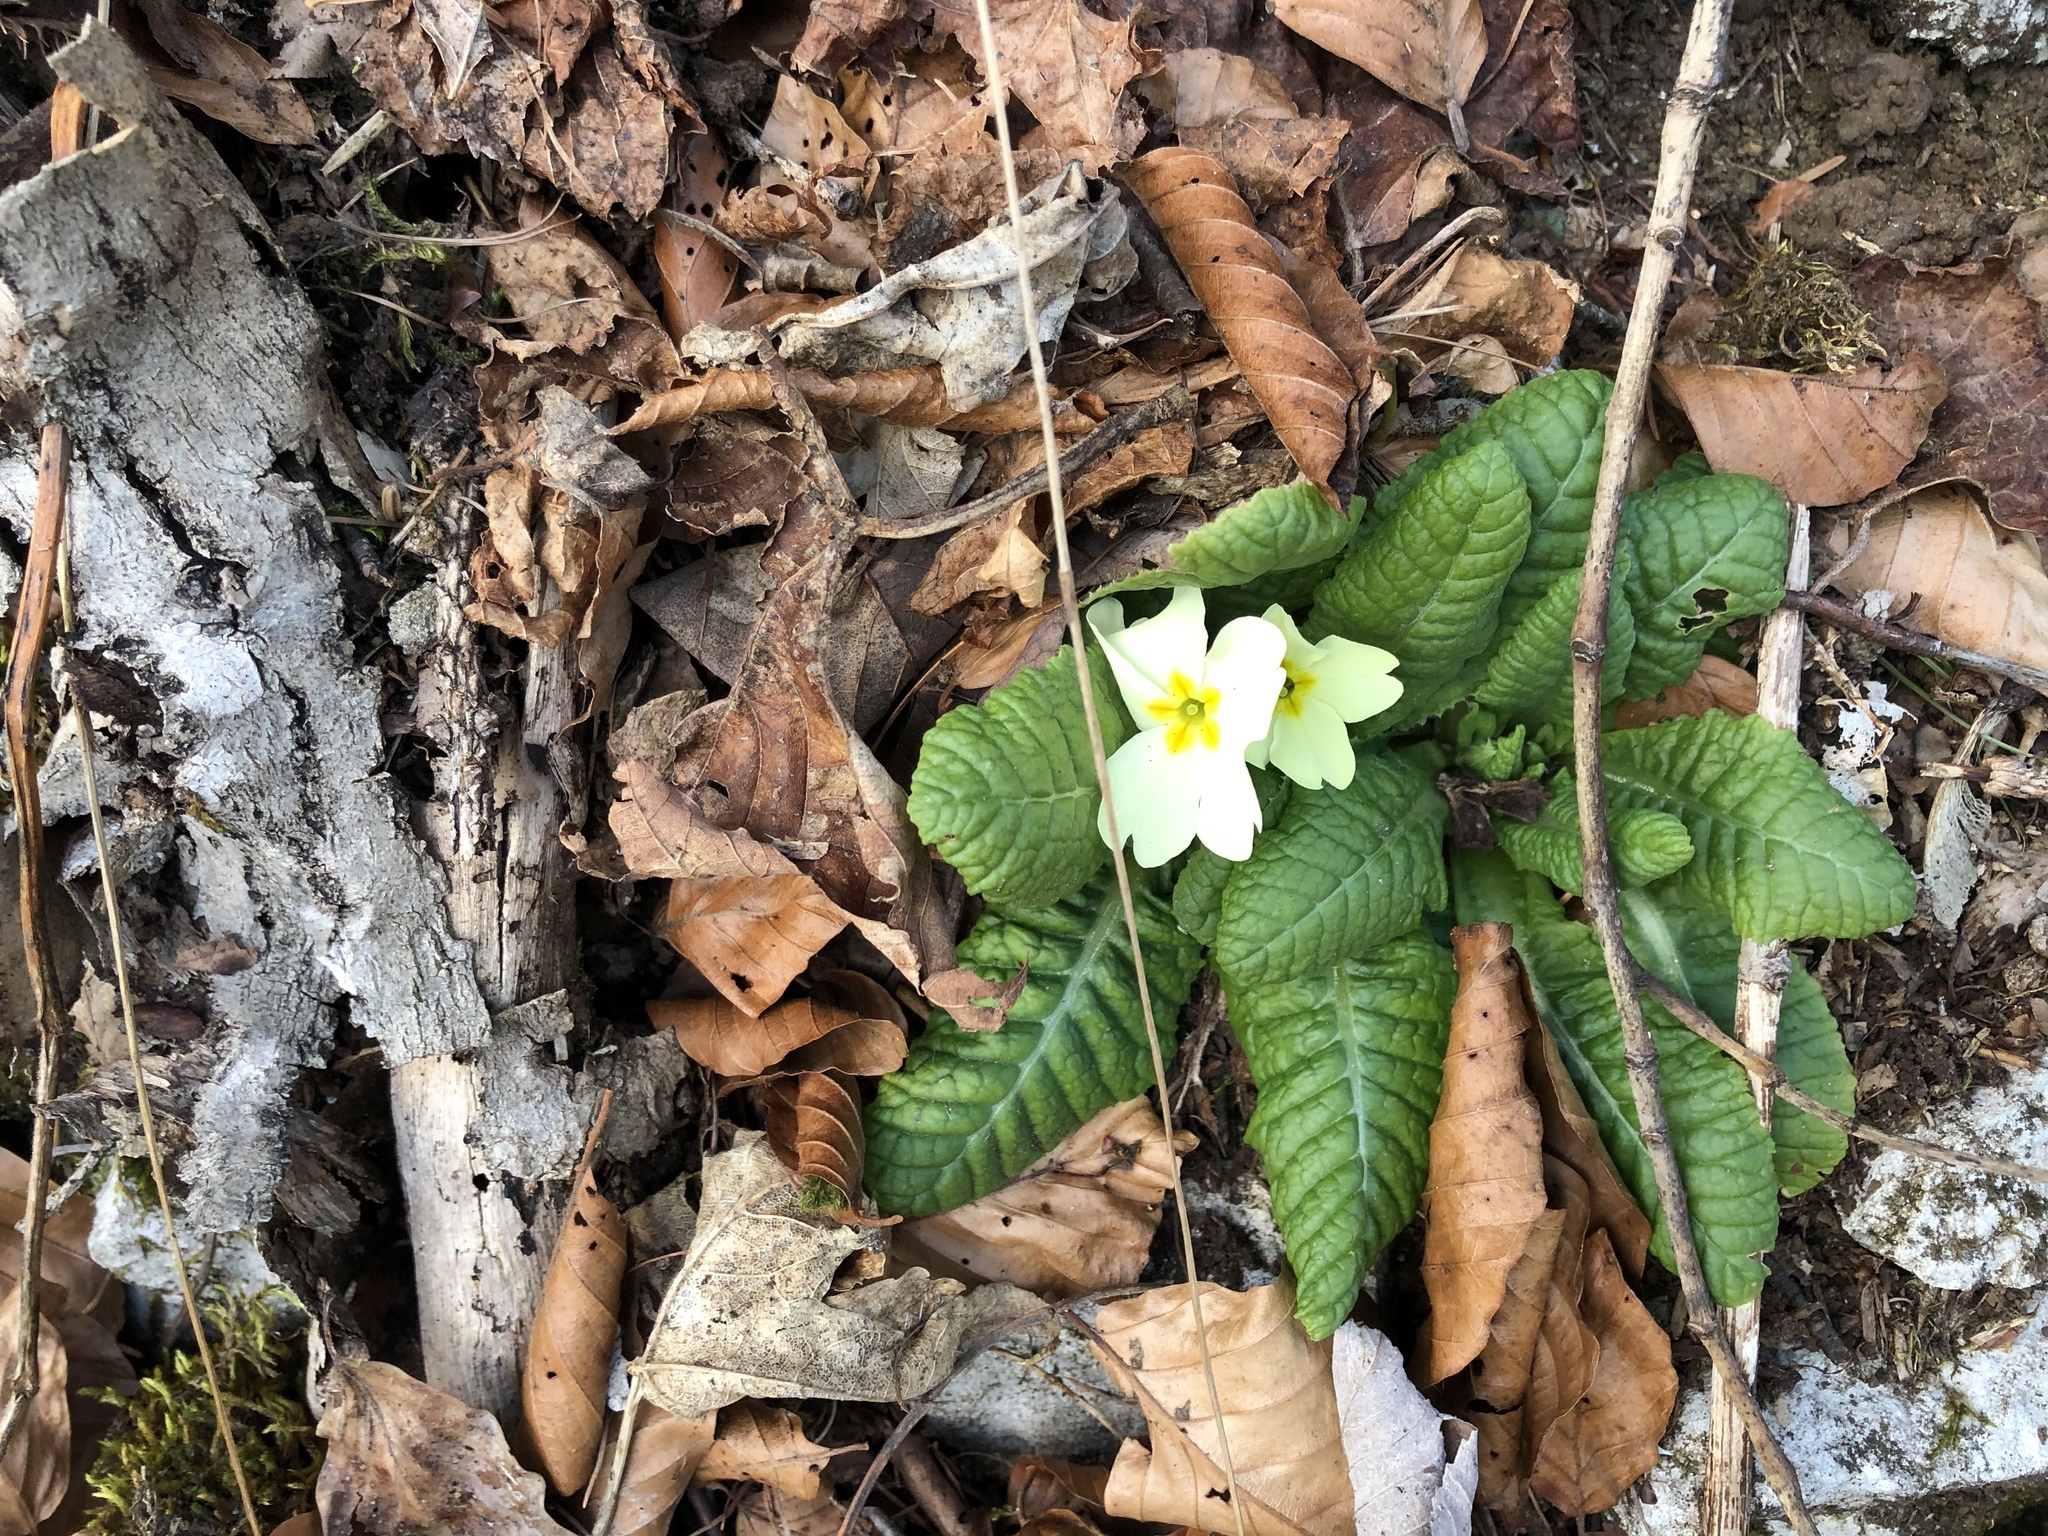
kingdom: Plantae
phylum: Tracheophyta
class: Magnoliopsida
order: Ericales
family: Primulaceae
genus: Primula
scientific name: Primula vulgaris
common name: Primrose
